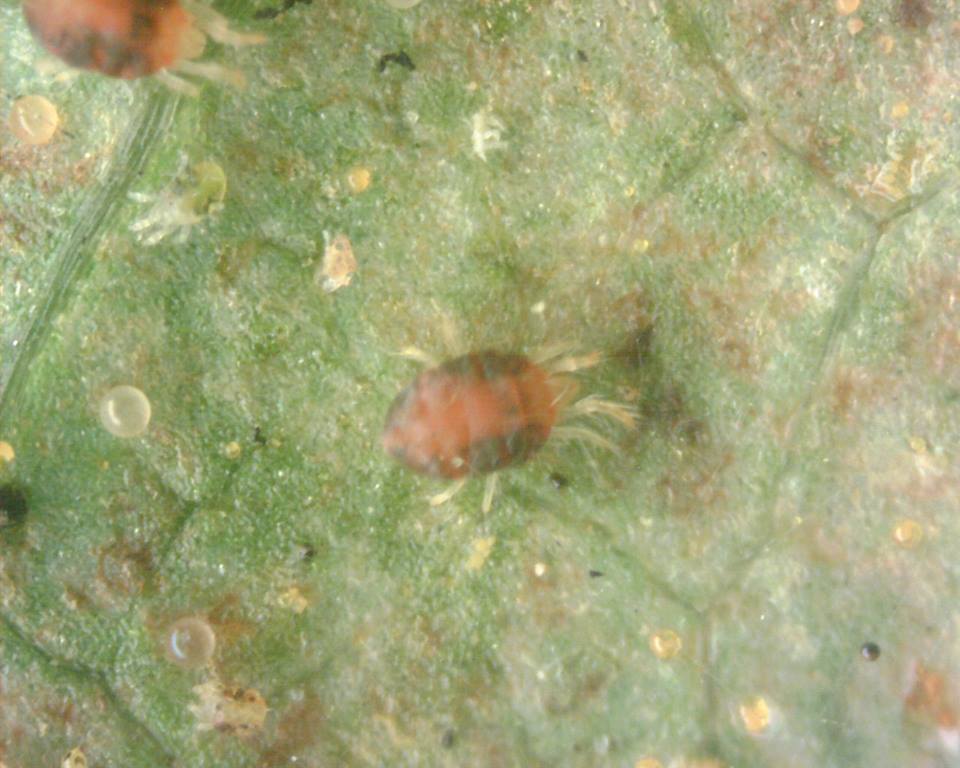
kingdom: Animalia
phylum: Arthropoda
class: Arachnida
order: Trombidiformes
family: Tetranychidae
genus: Tetranychus
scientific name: Tetranychus urticae
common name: Carmine spider mite
